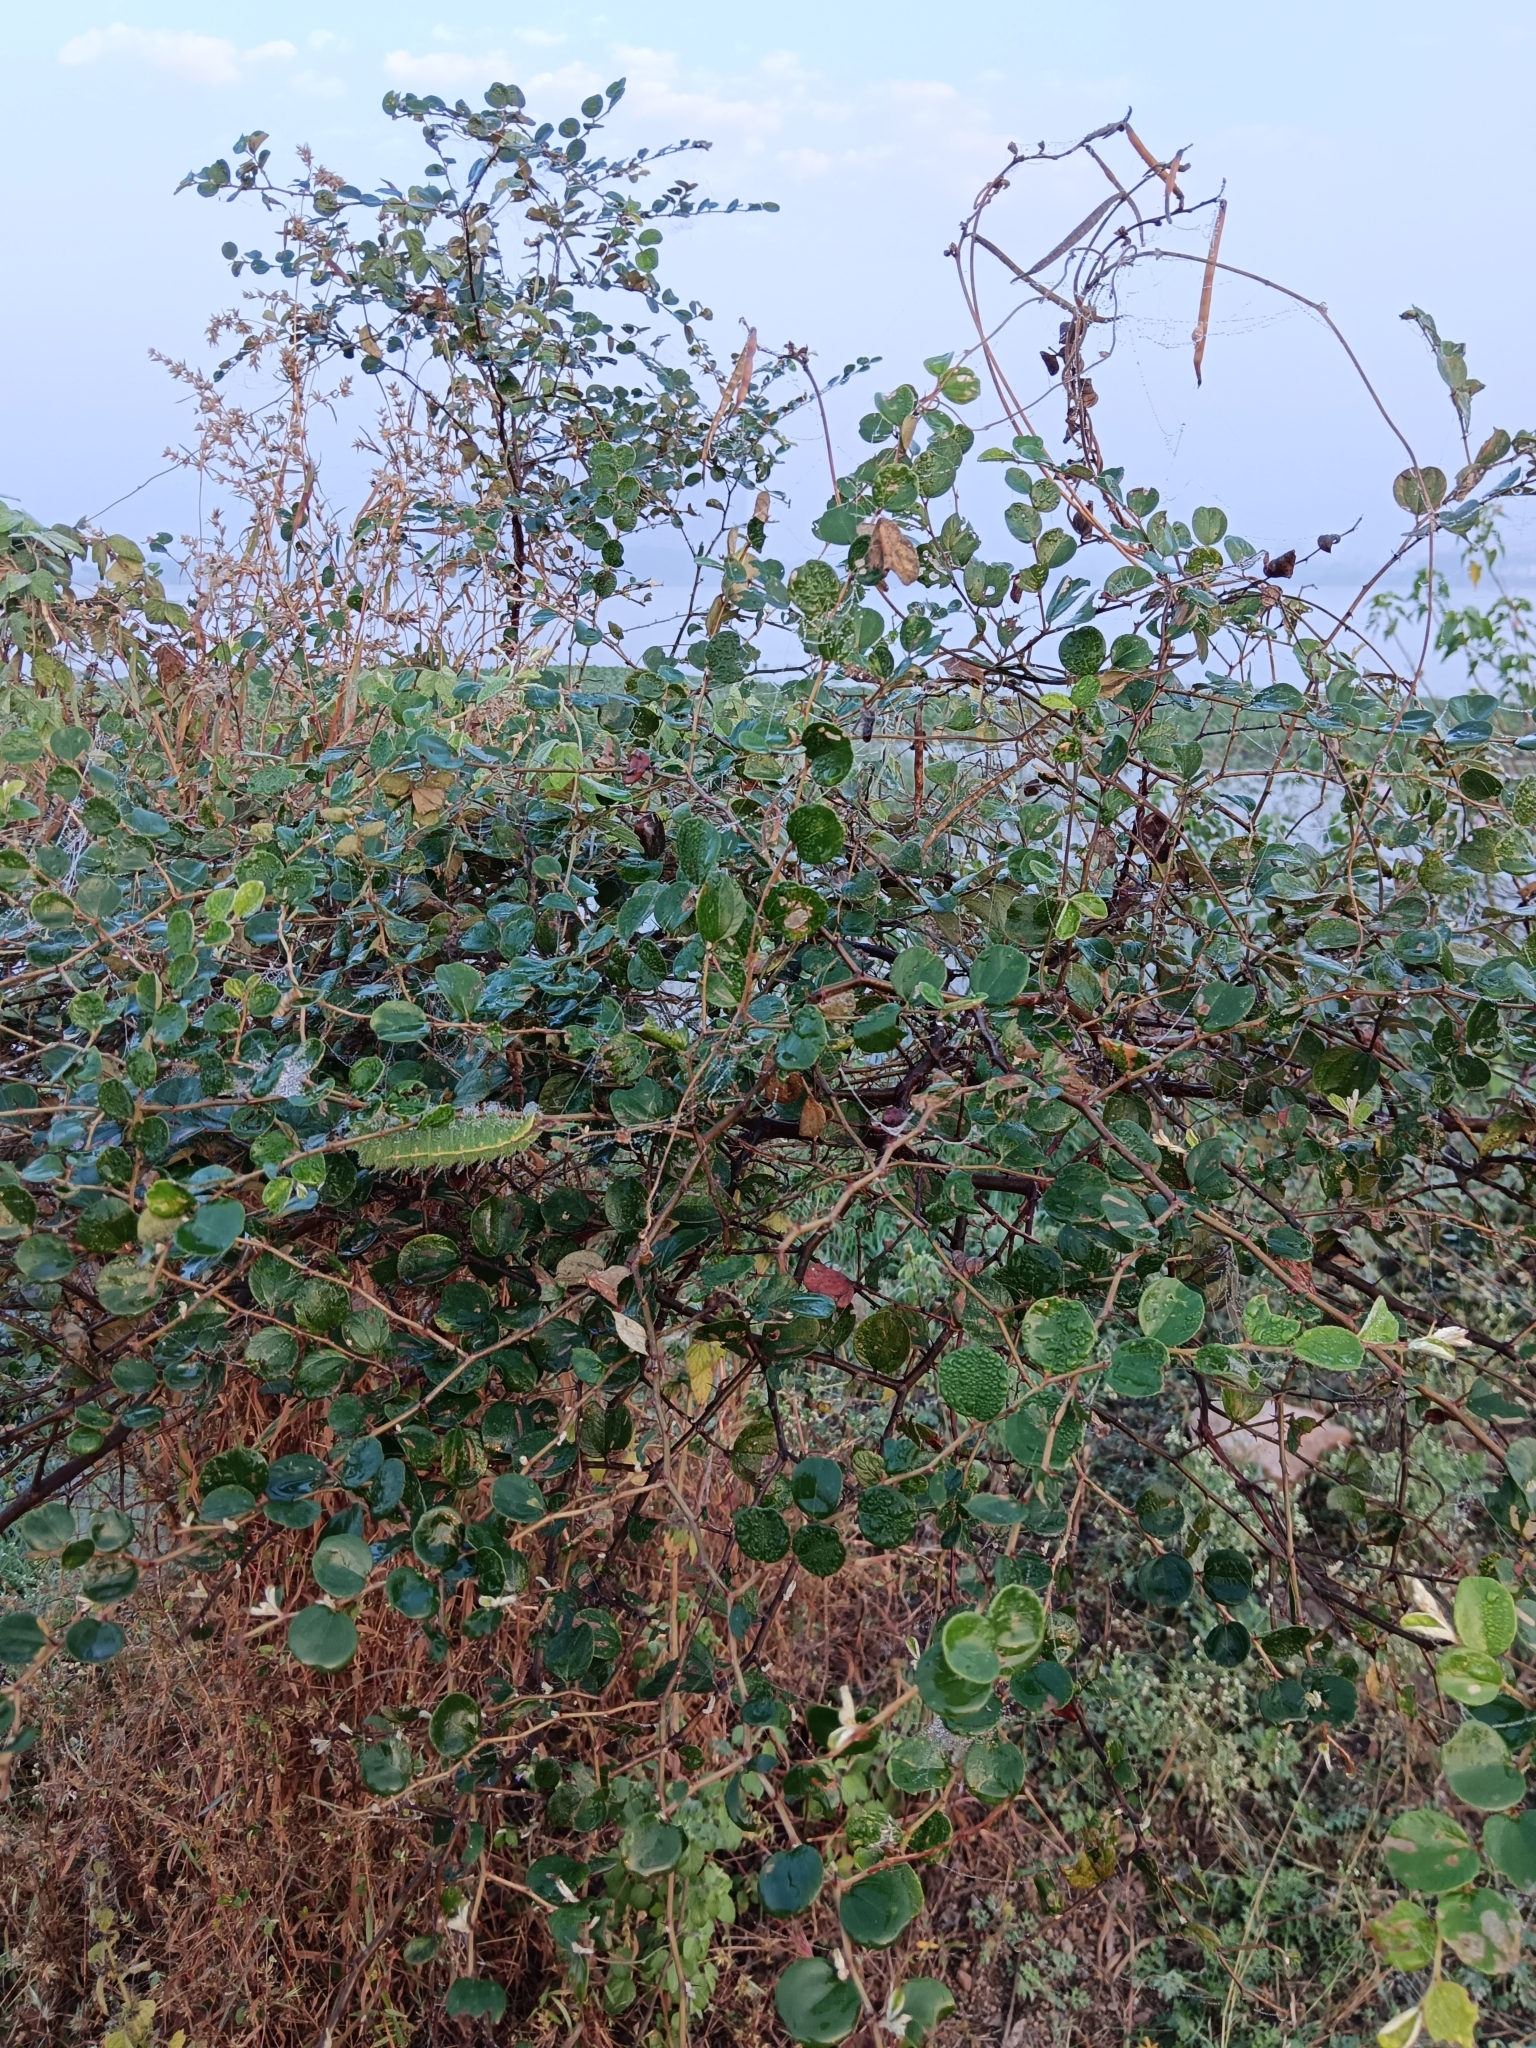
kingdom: Animalia
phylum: Arthropoda
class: Insecta
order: Lepidoptera
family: Saturniidae
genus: Antheraea
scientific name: Antheraea paphia
